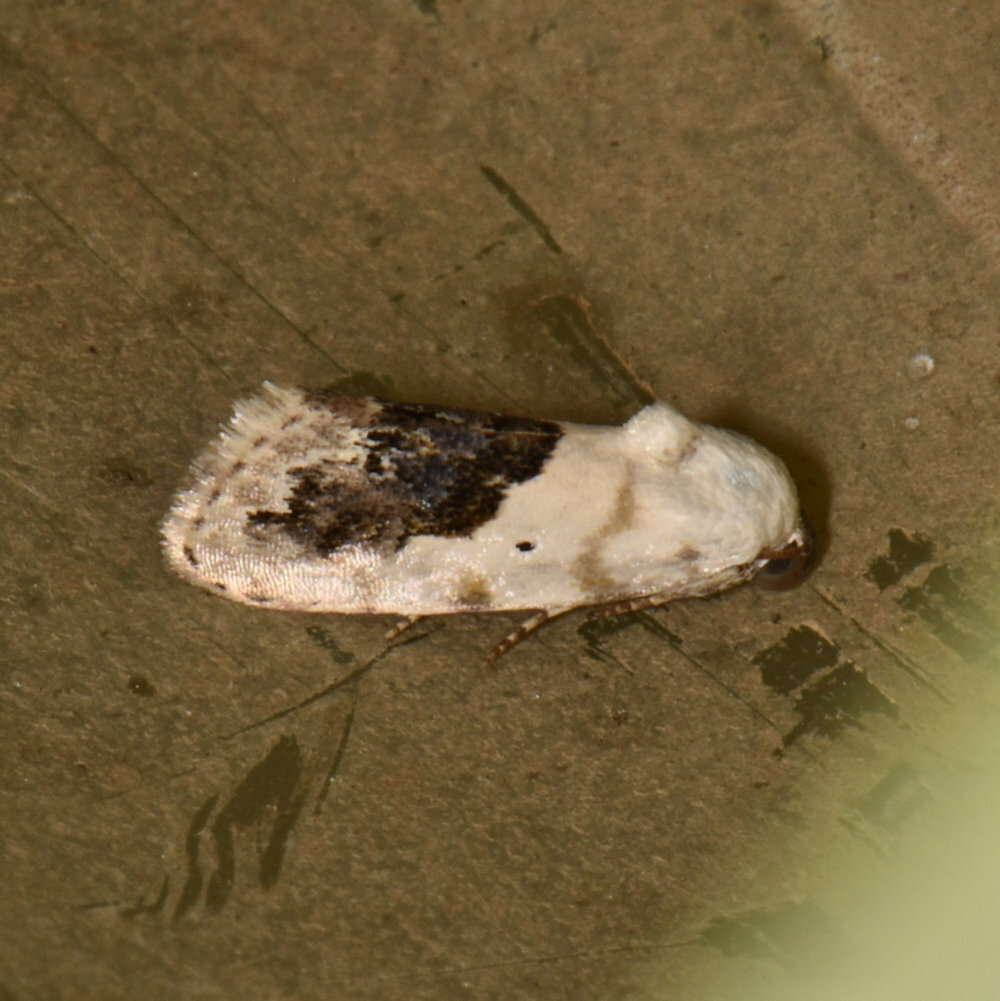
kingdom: Animalia
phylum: Arthropoda
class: Insecta
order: Lepidoptera
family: Noctuidae
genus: Acontia
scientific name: Acontia erastrioides
